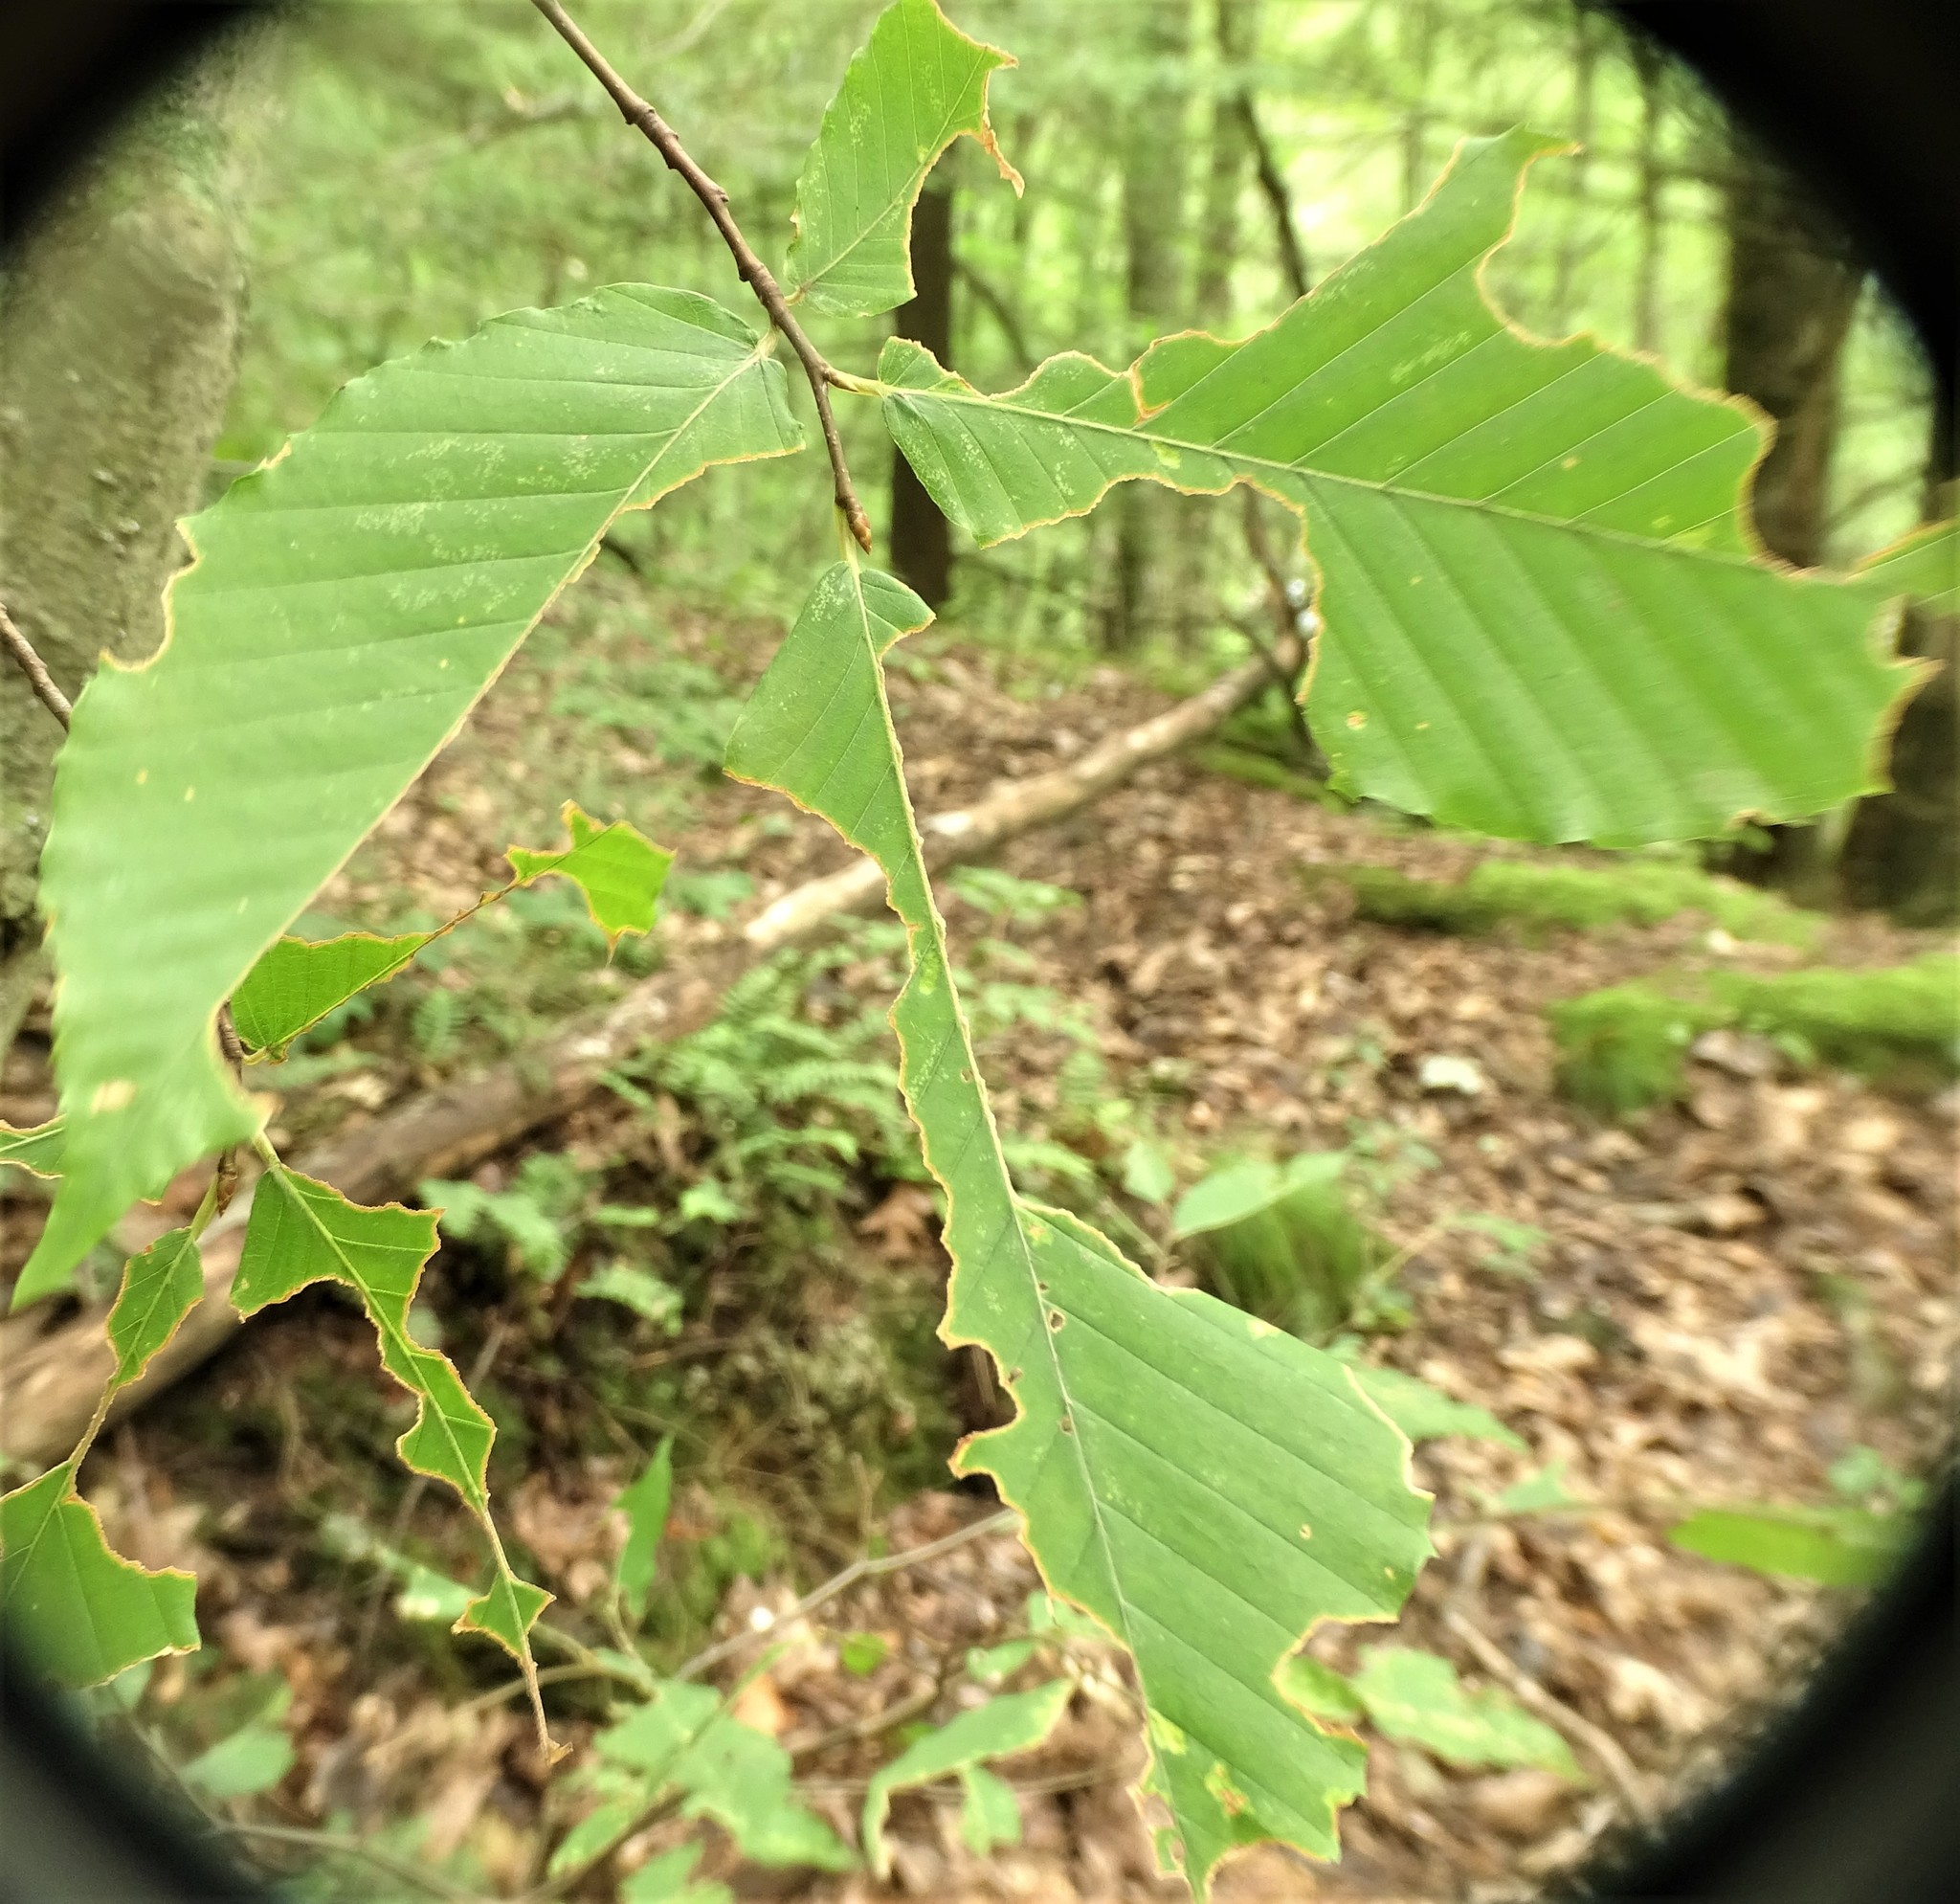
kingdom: Plantae
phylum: Tracheophyta
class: Magnoliopsida
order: Fagales
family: Fagaceae
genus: Fagus
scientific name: Fagus grandifolia
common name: American beech
